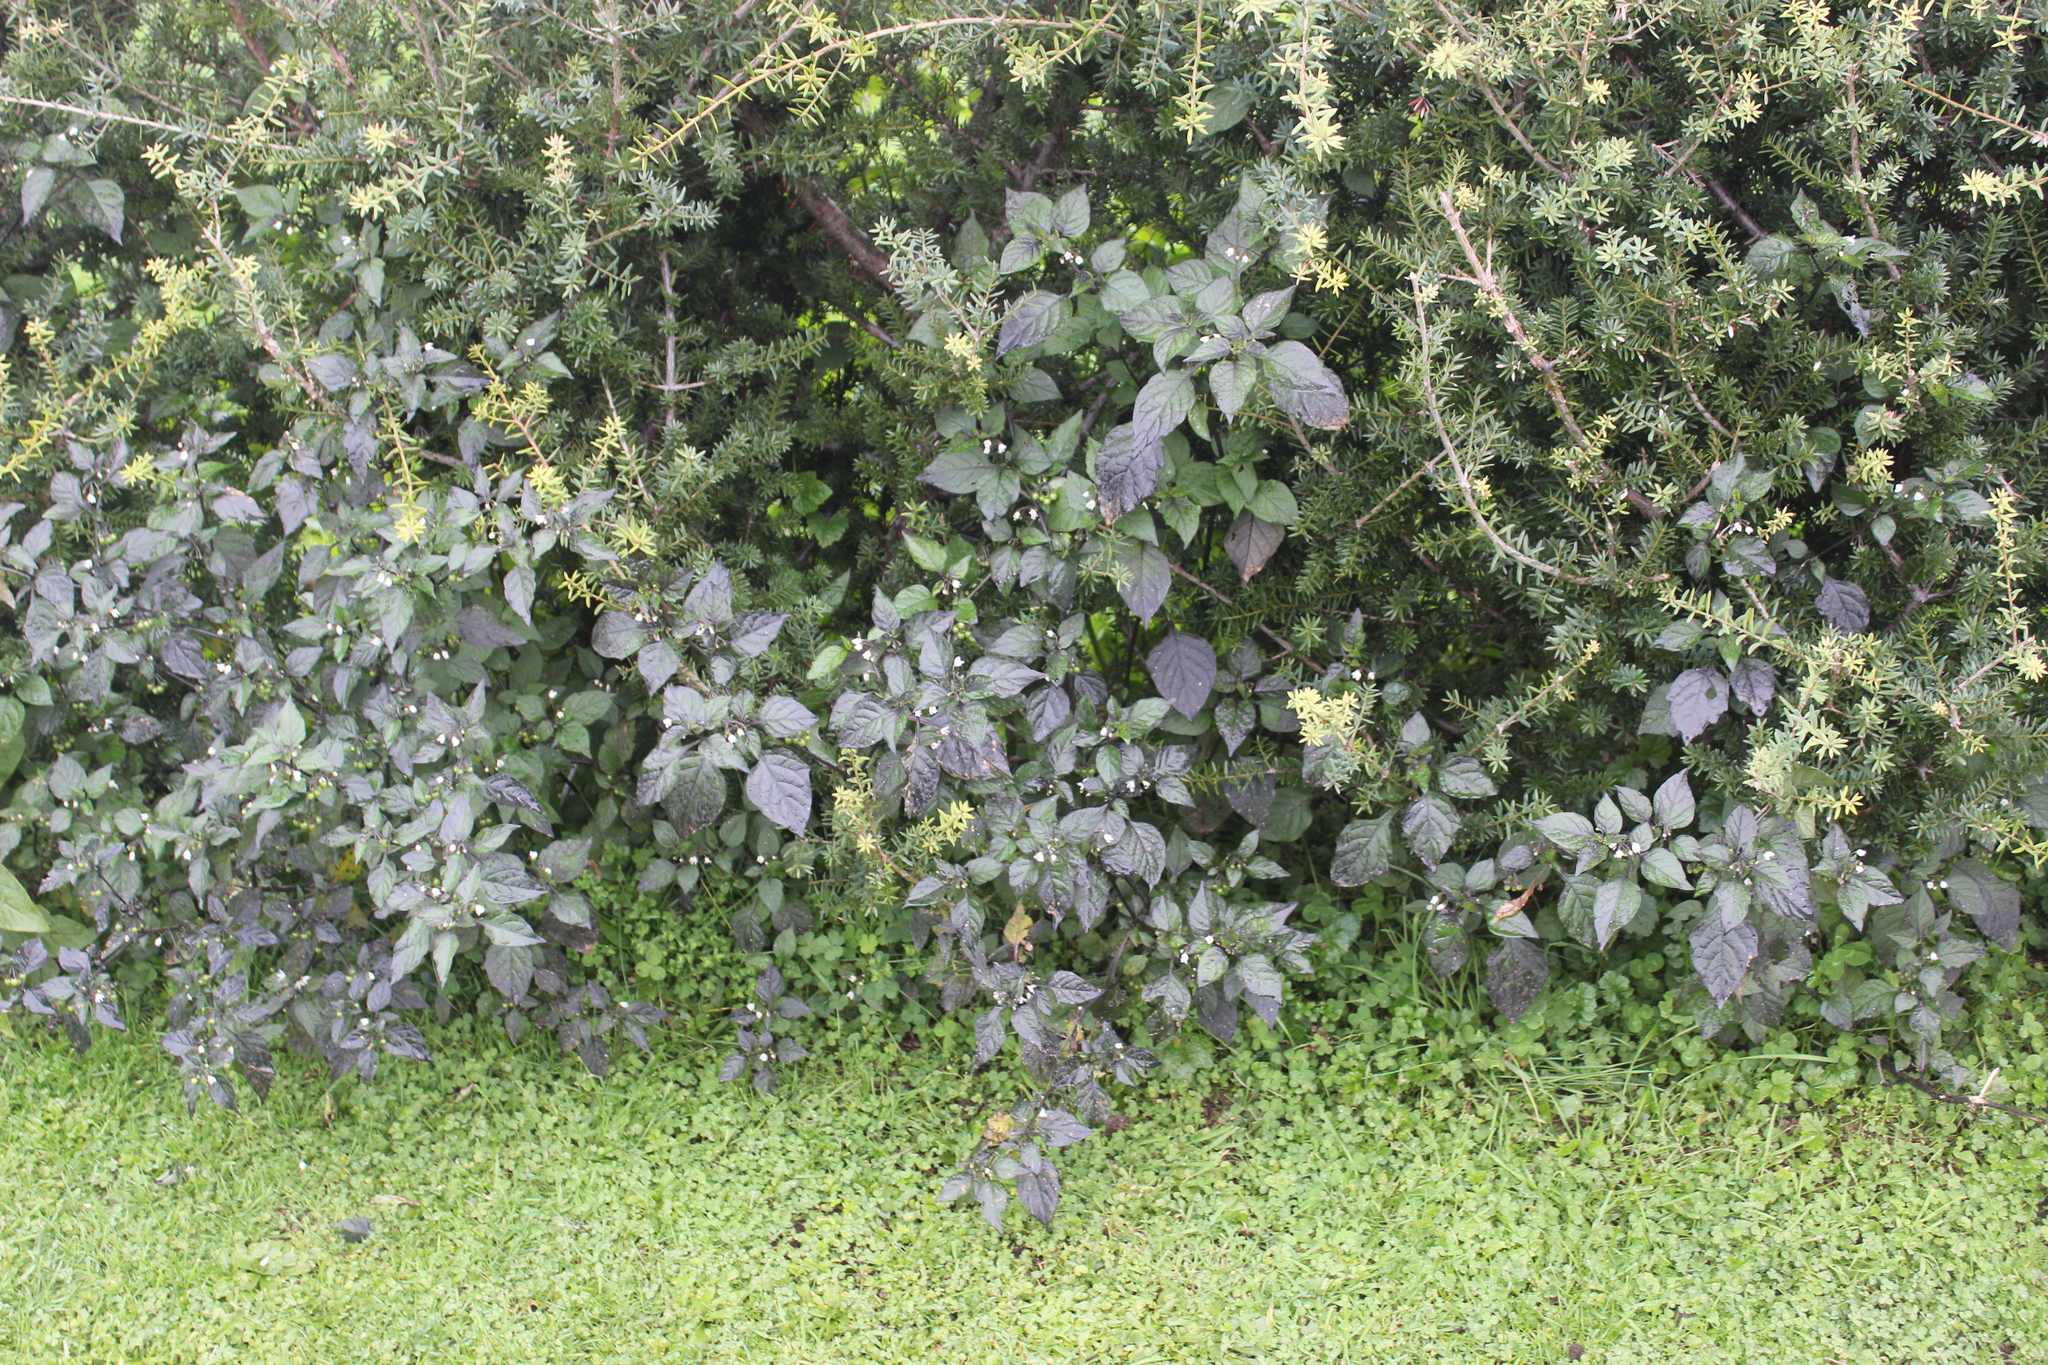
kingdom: Plantae
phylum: Tracheophyta
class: Magnoliopsida
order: Solanales
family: Solanaceae
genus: Solanum
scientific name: Solanum nigrum
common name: Black nightshade
